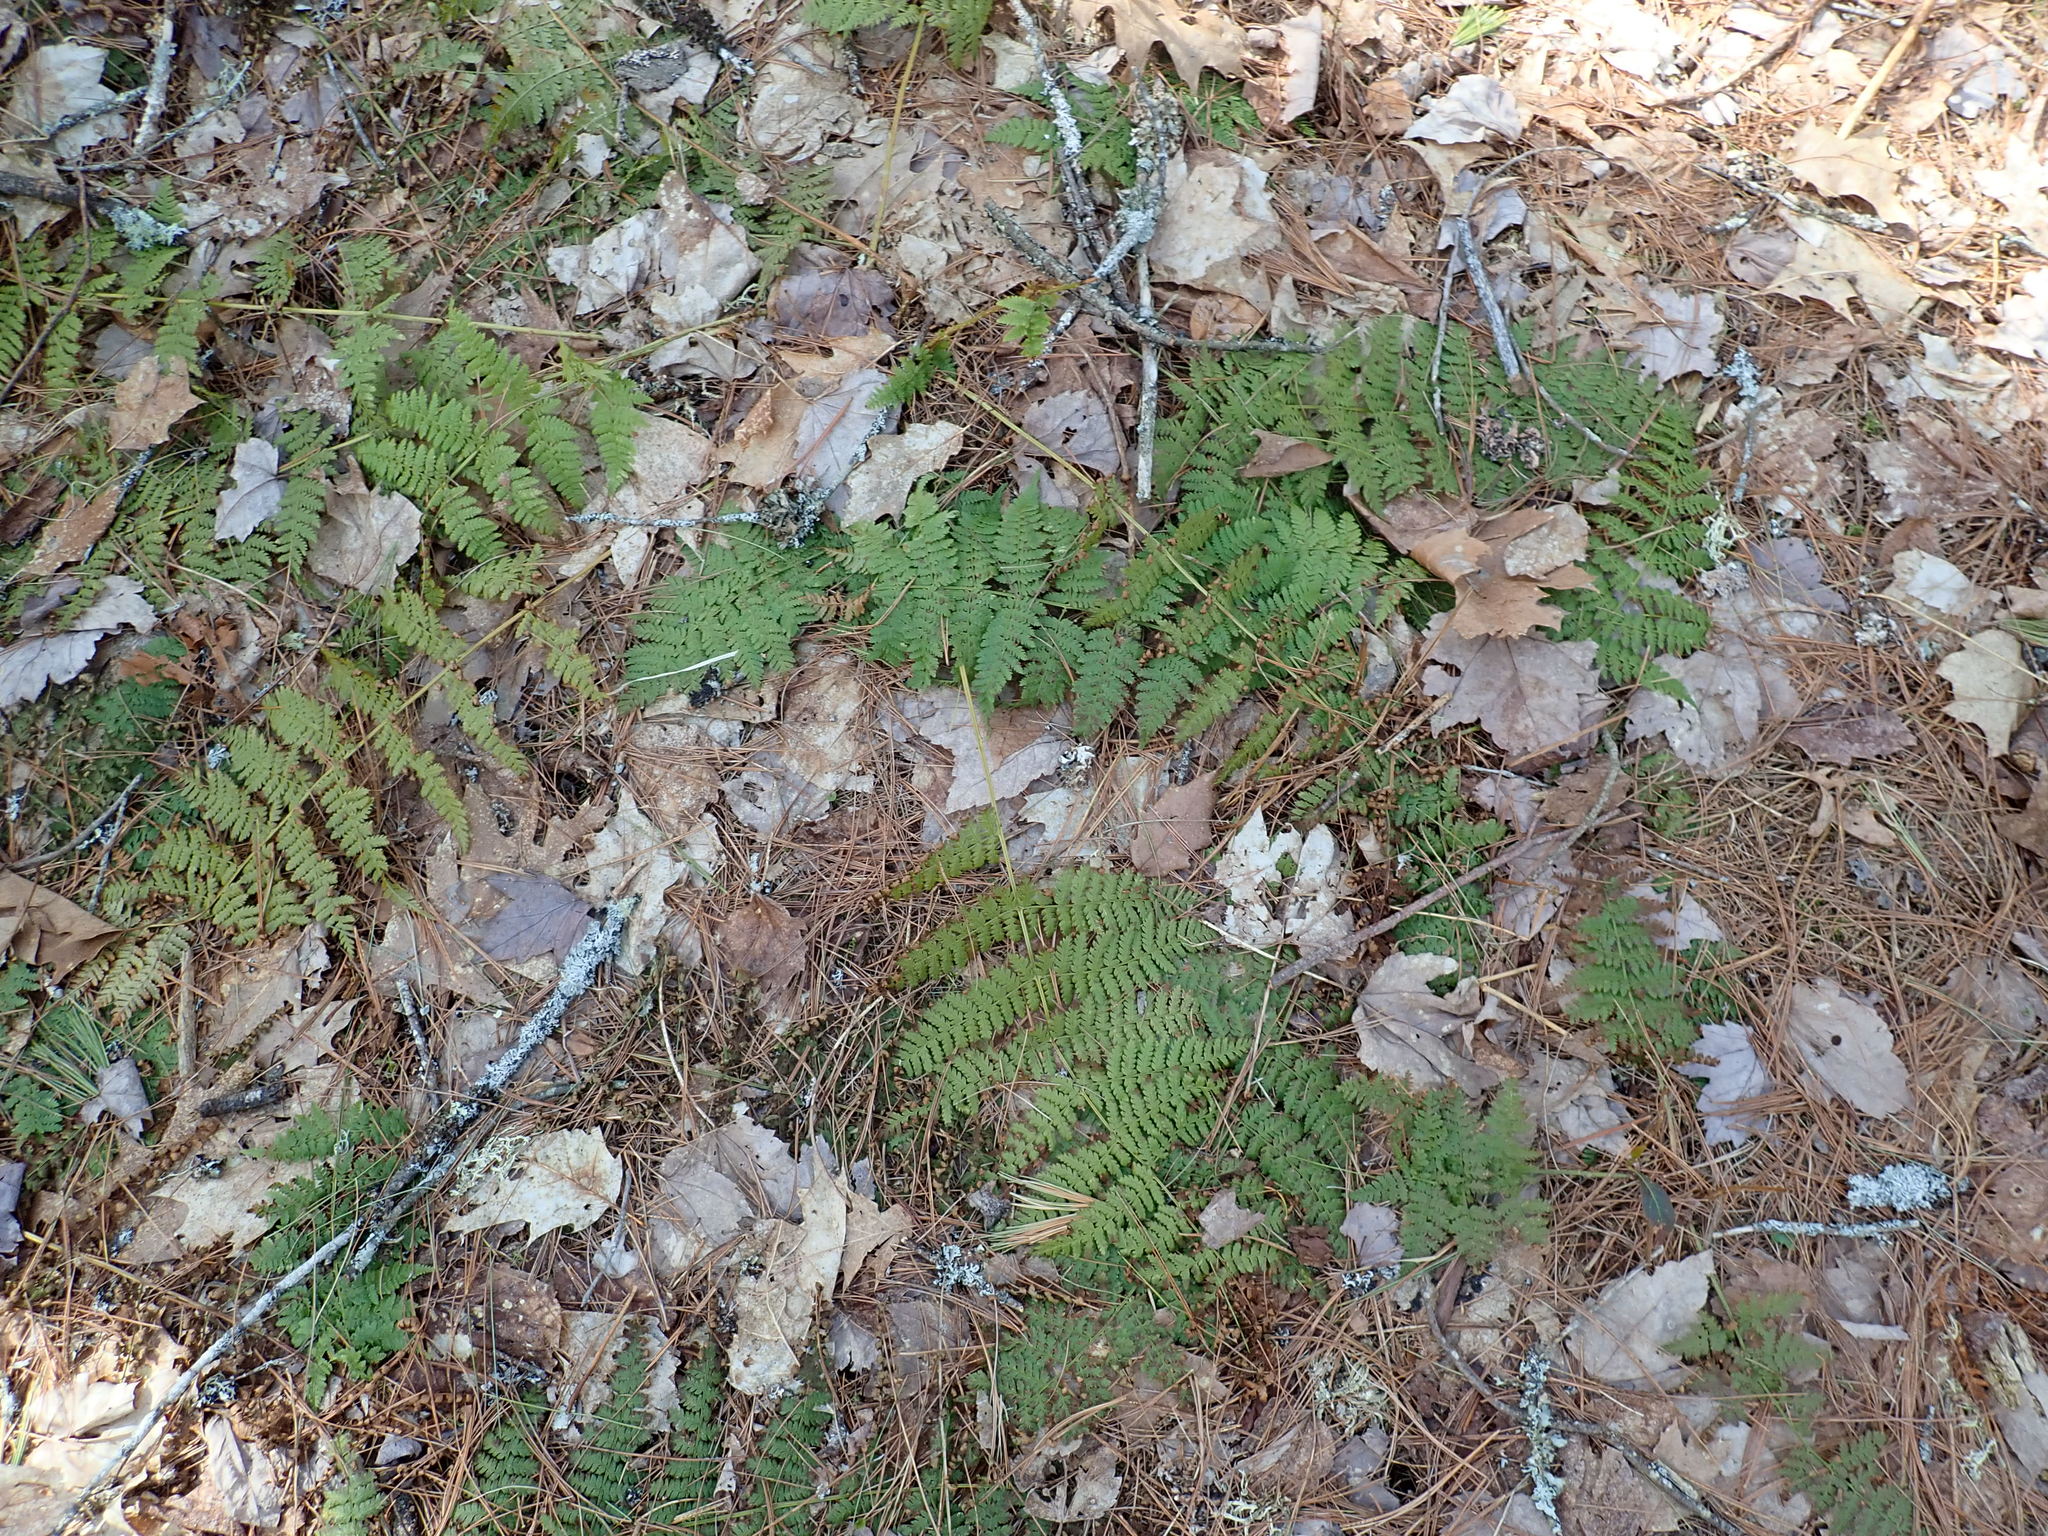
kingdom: Plantae
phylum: Tracheophyta
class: Polypodiopsida
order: Polypodiales
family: Dryopteridaceae
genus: Dryopteris
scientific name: Dryopteris intermedia
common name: Evergreen wood fern
